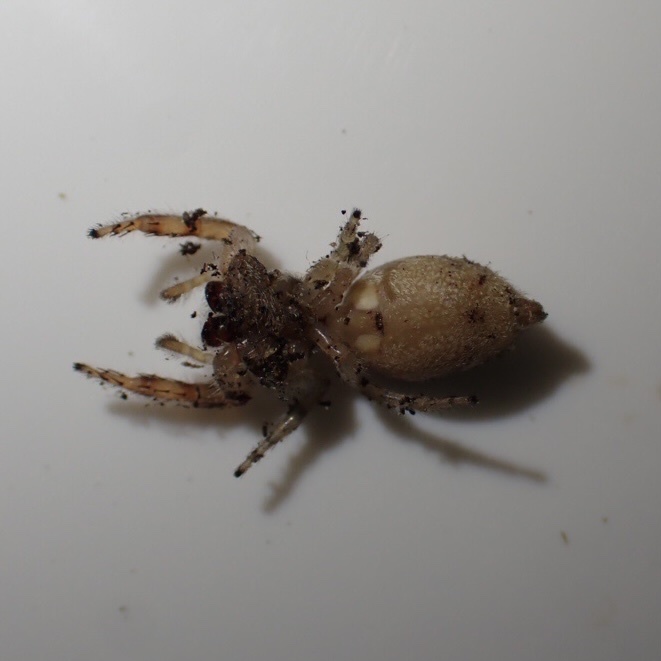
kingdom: Animalia
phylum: Arthropoda
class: Arachnida
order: Araneae
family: Salticidae
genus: Opisthoncus
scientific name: Opisthoncus polyphemus
